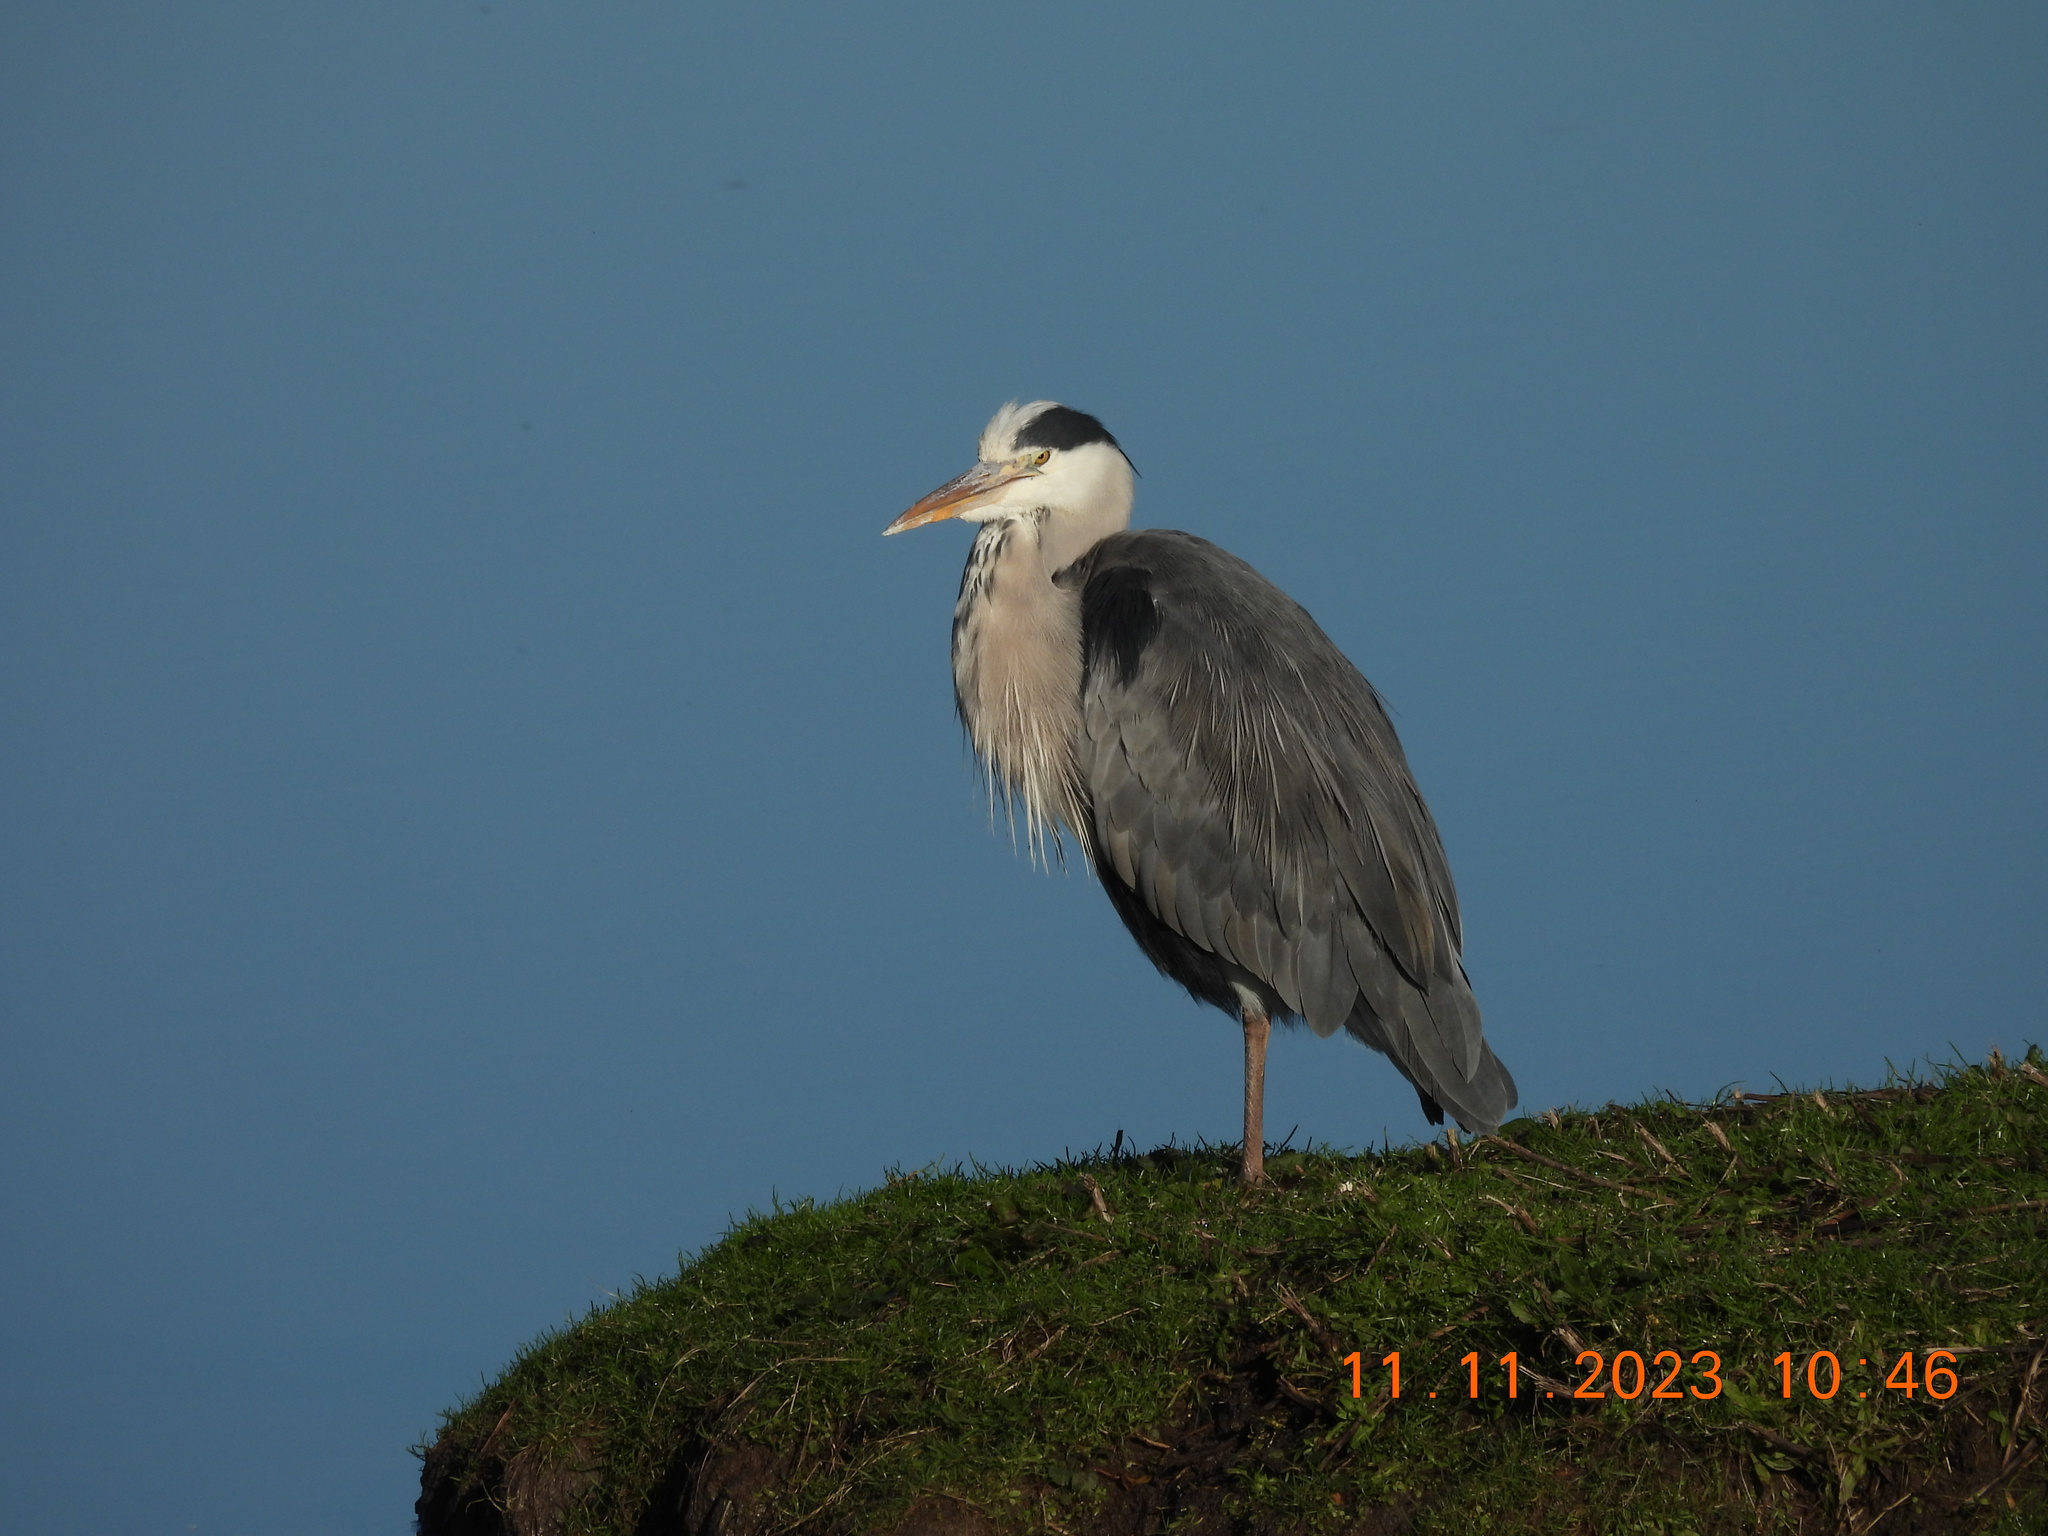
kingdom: Animalia
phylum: Chordata
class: Aves
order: Pelecaniformes
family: Ardeidae
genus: Ardea
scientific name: Ardea cinerea
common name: Grey heron
